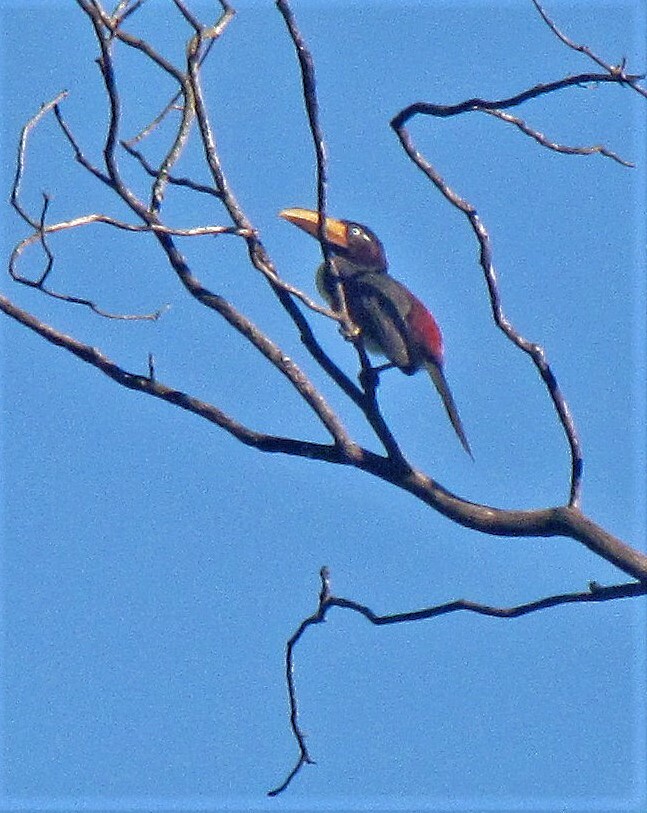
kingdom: Animalia
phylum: Chordata
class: Aves
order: Piciformes
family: Ramphastidae
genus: Pteroglossus
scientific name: Pteroglossus castanotis
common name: Chestnut-eared aracari
